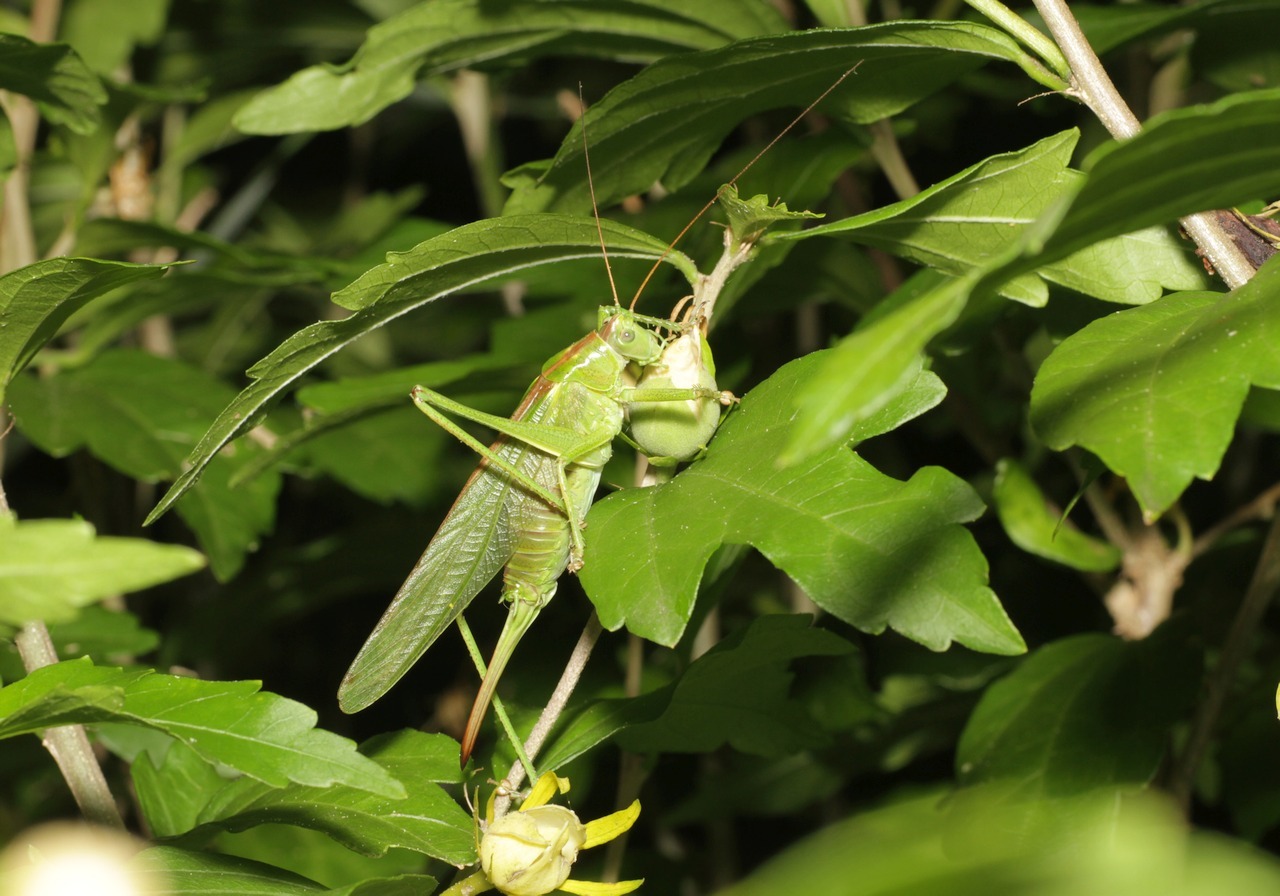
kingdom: Animalia
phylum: Arthropoda
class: Insecta
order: Orthoptera
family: Tettigoniidae
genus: Tettigonia
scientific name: Tettigonia viridissima
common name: Great green bush-cricket
